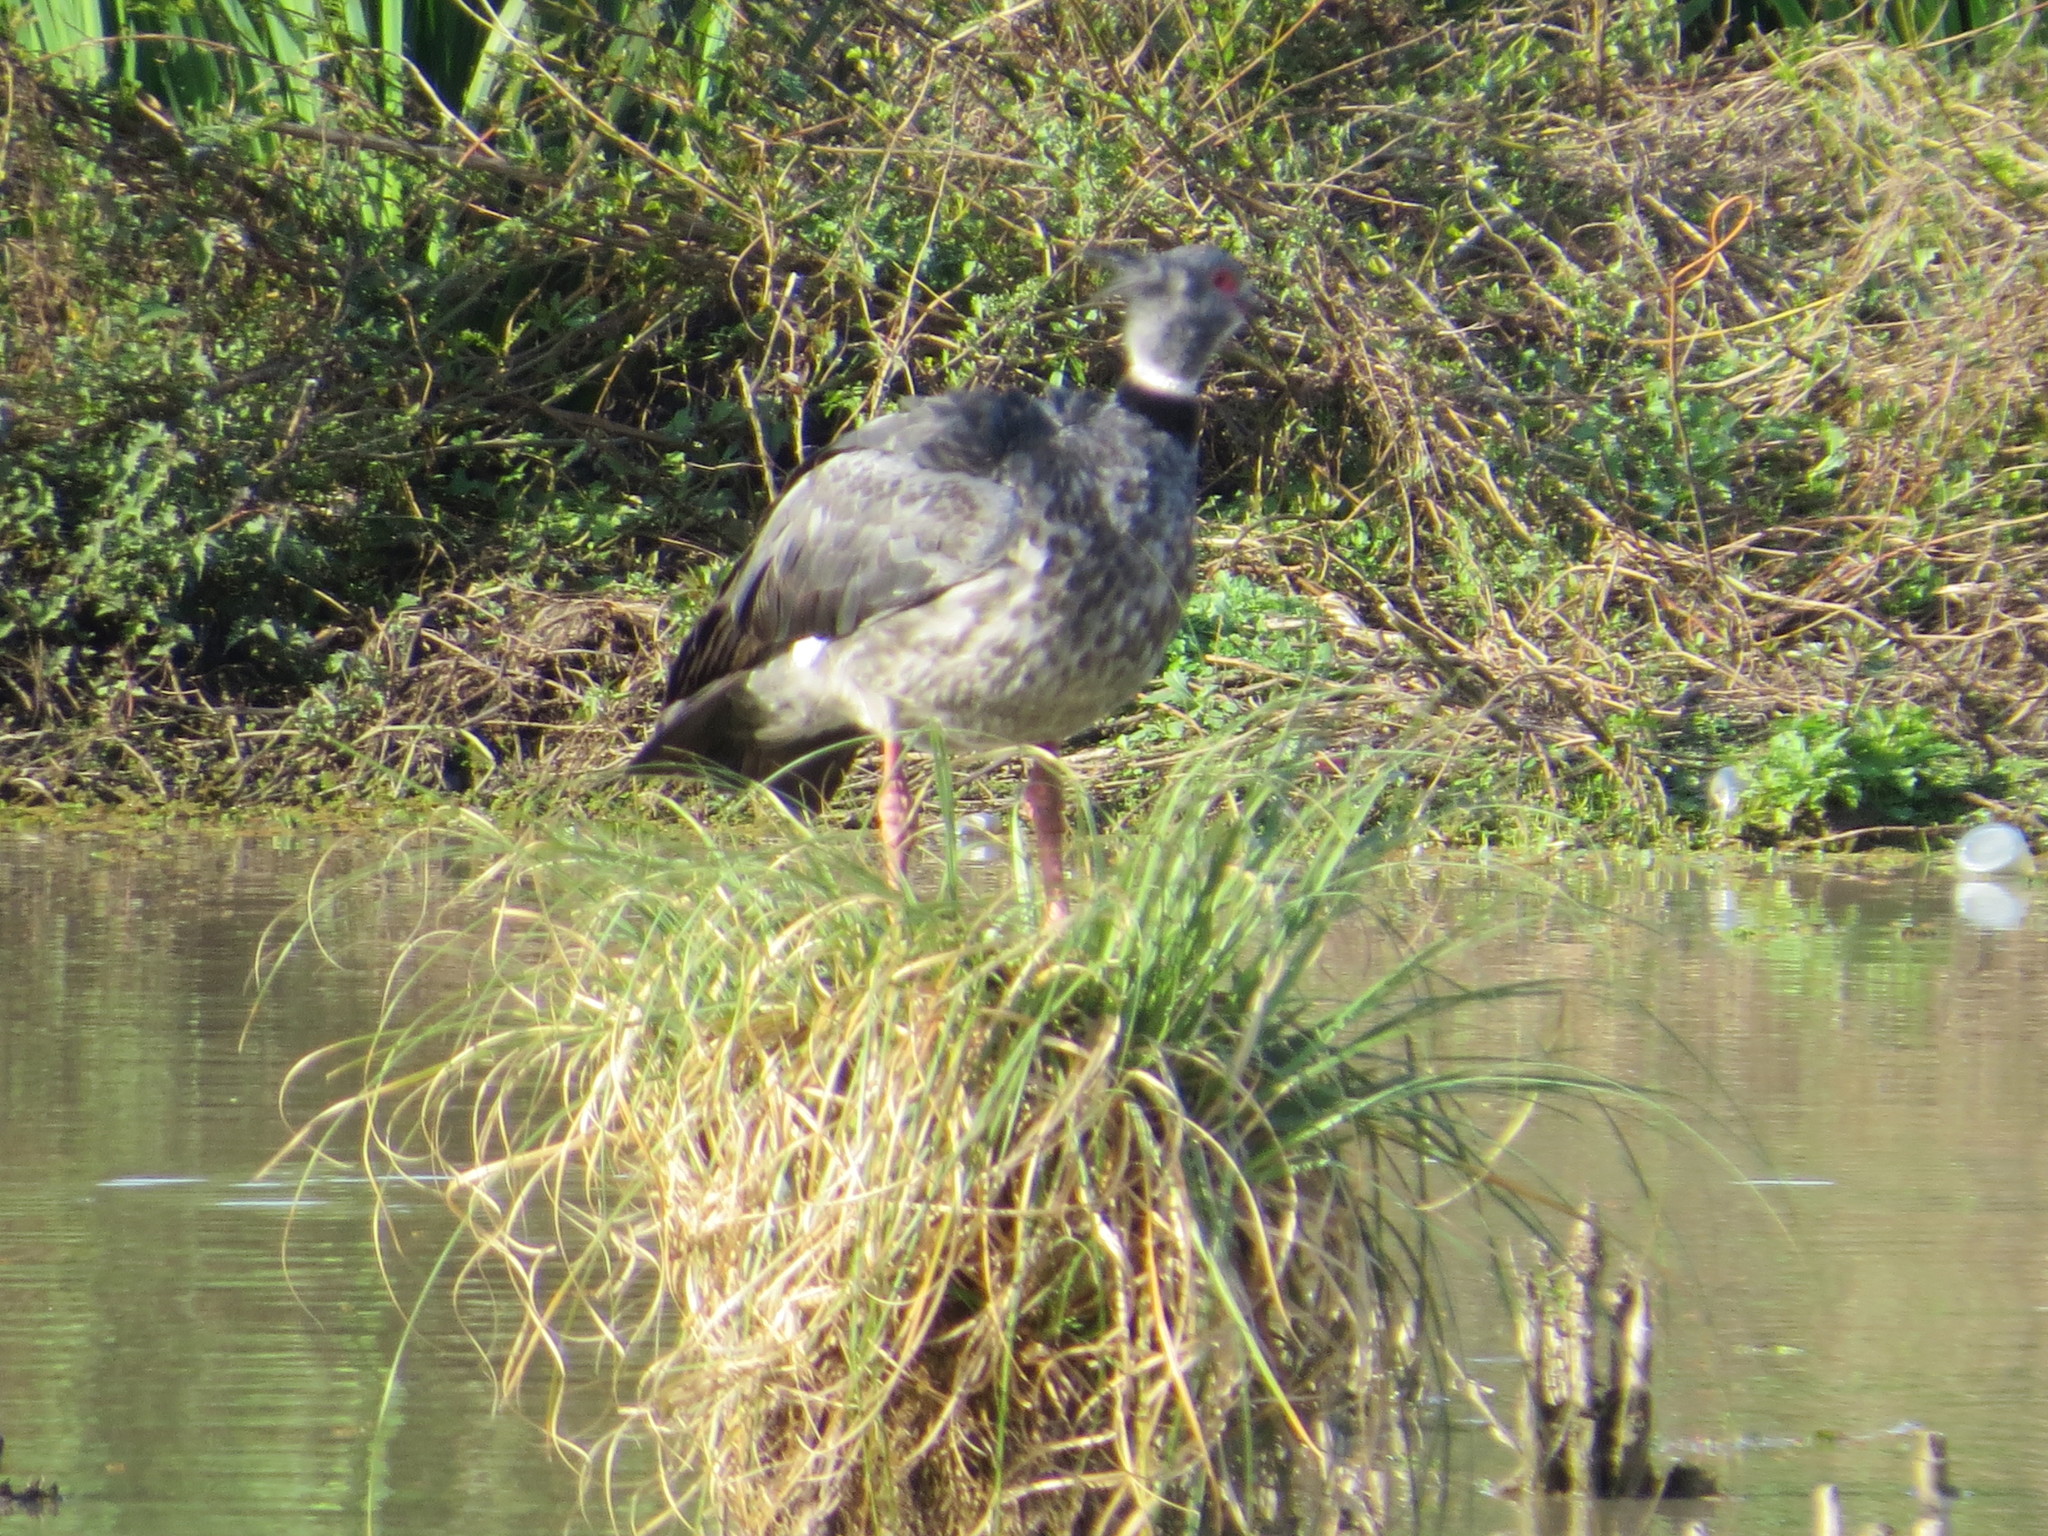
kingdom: Animalia
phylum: Chordata
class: Aves
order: Anseriformes
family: Anhimidae
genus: Chauna
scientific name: Chauna torquata
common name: Southern screamer
